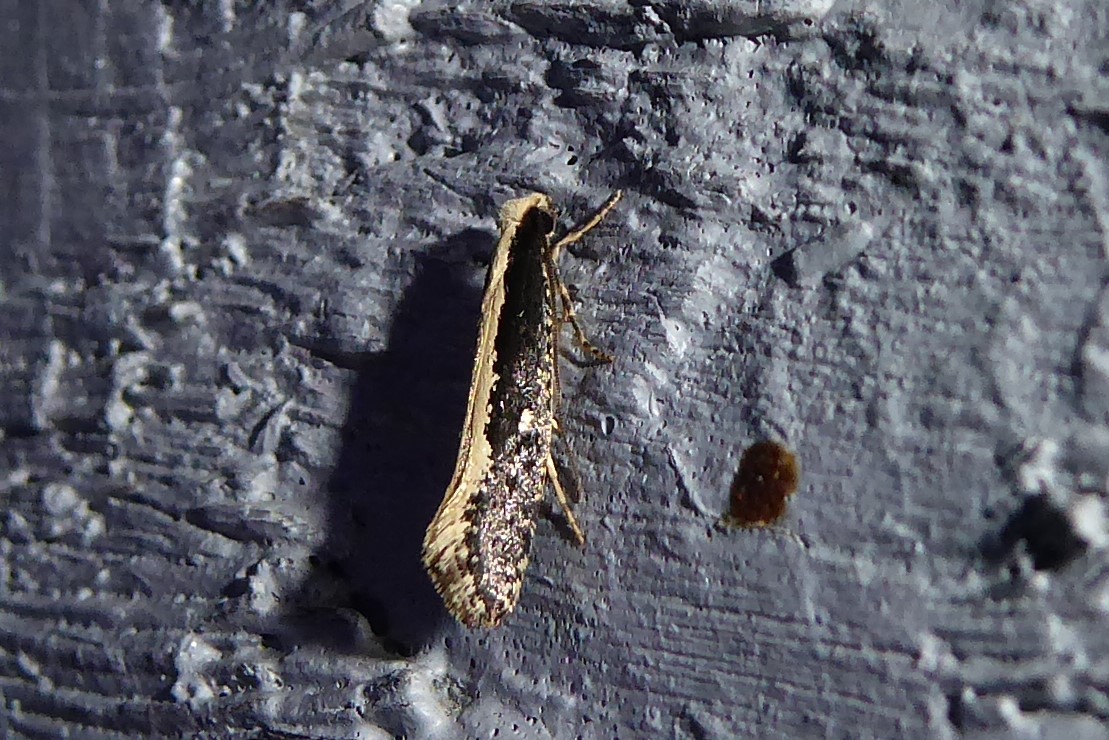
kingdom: Animalia
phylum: Arthropoda
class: Insecta
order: Lepidoptera
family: Tineidae
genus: Monopis
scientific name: Monopis ethelella
